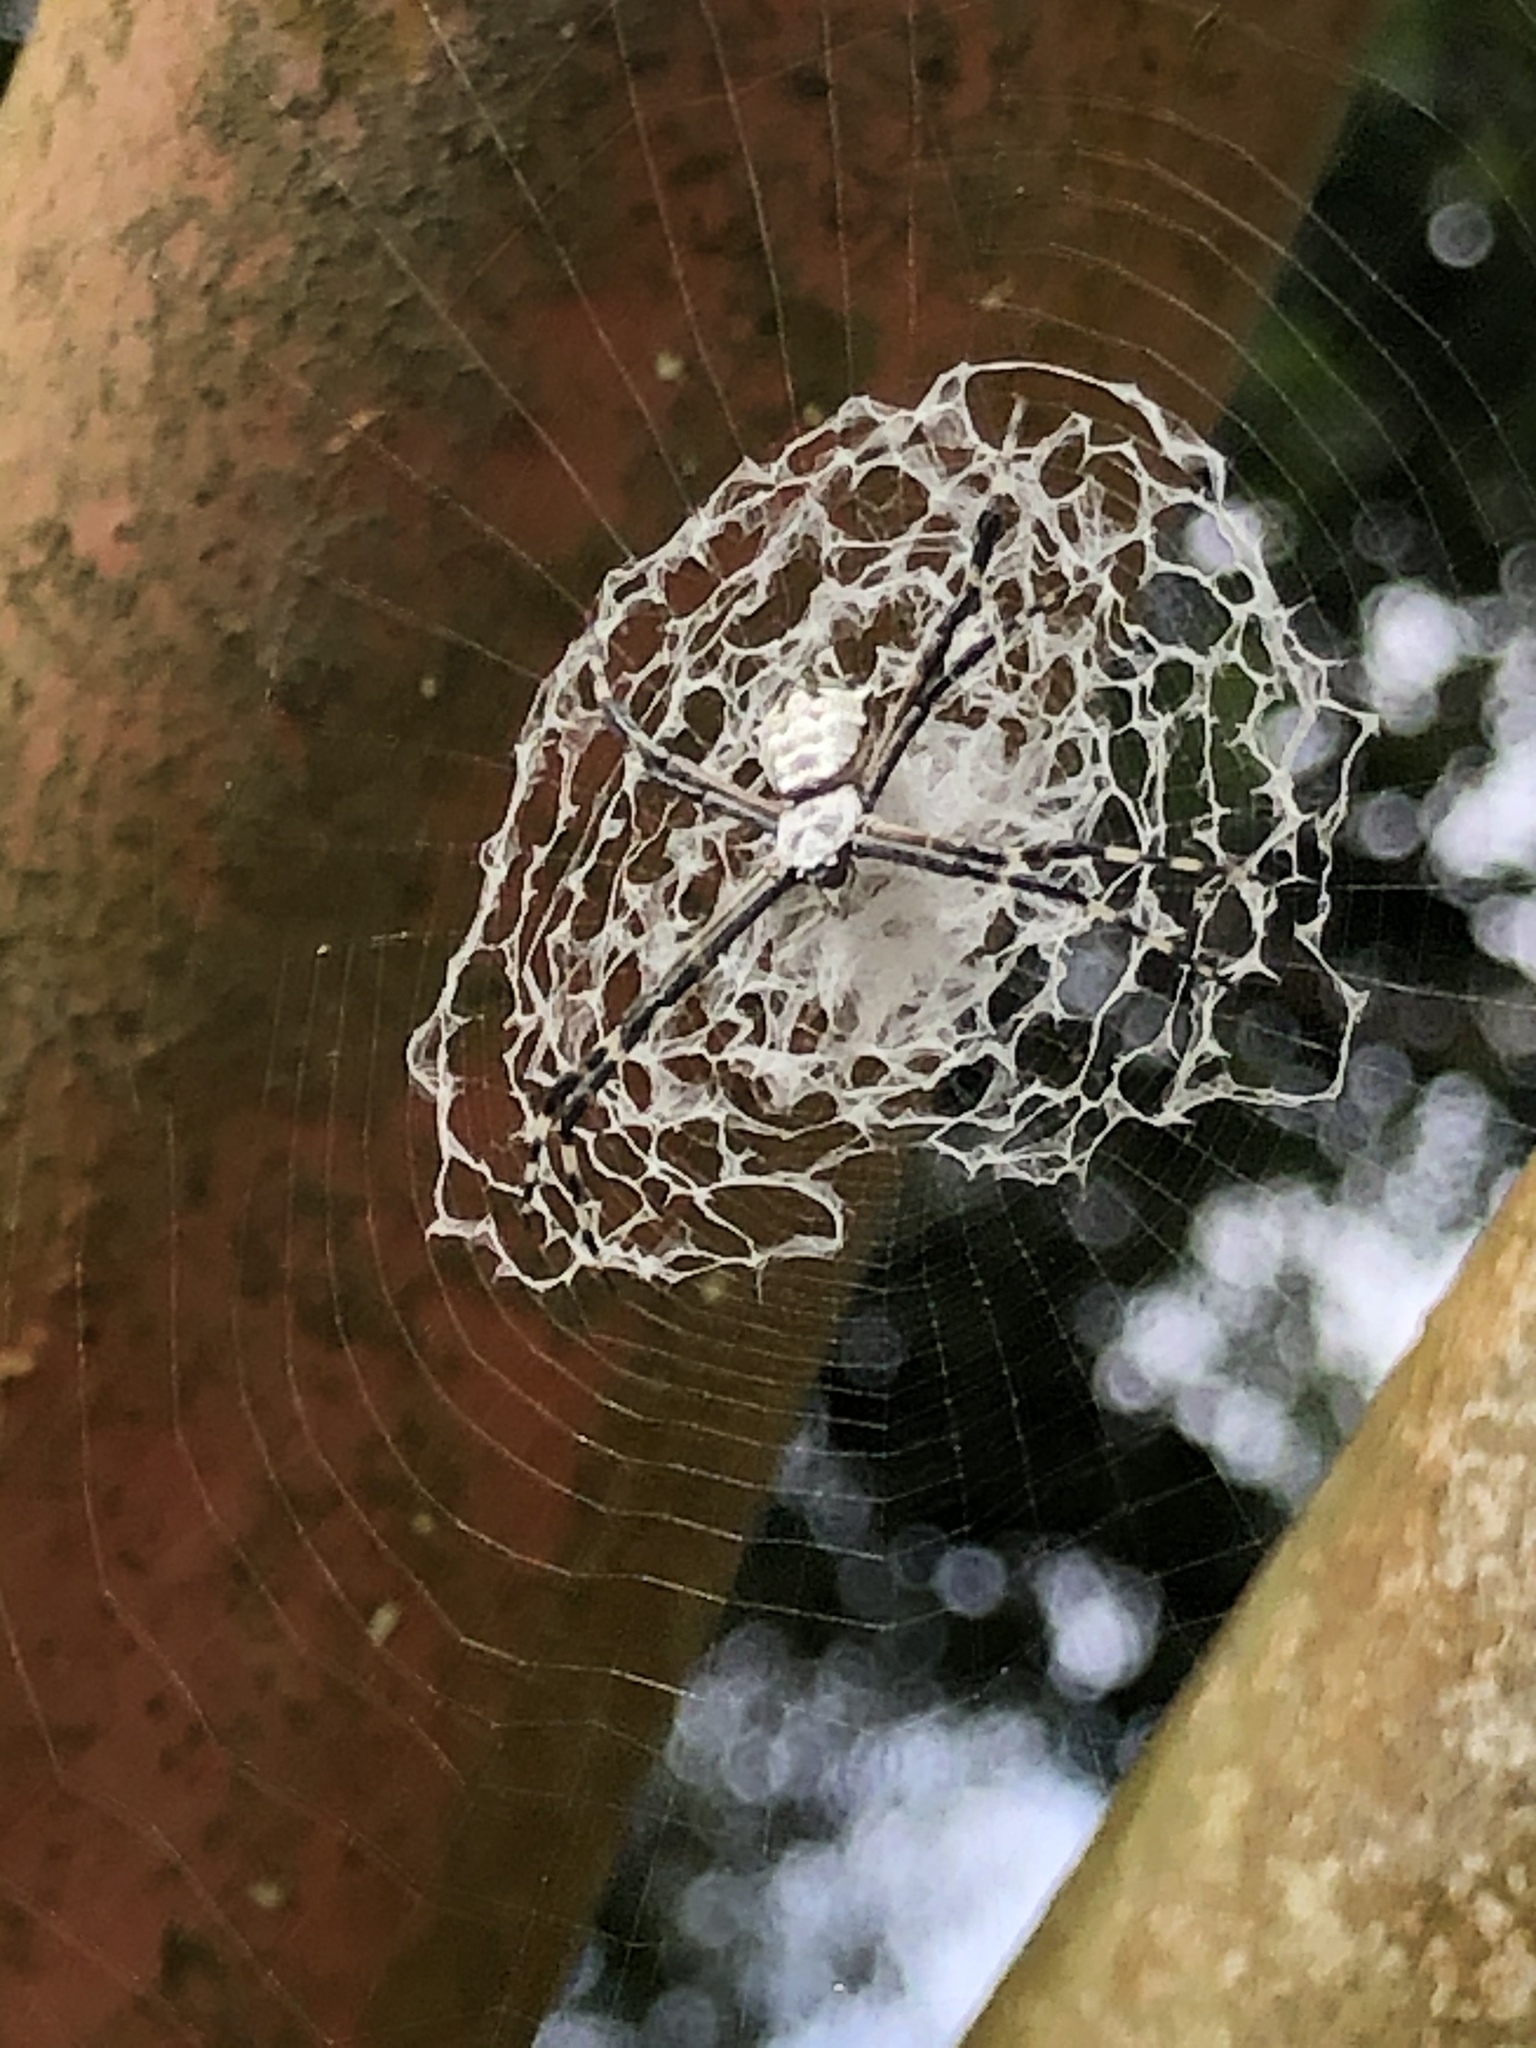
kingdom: Animalia
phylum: Arthropoda
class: Arachnida
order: Araneae
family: Araneidae
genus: Argiope
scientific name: Argiope submaronica
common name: Orb weavers
